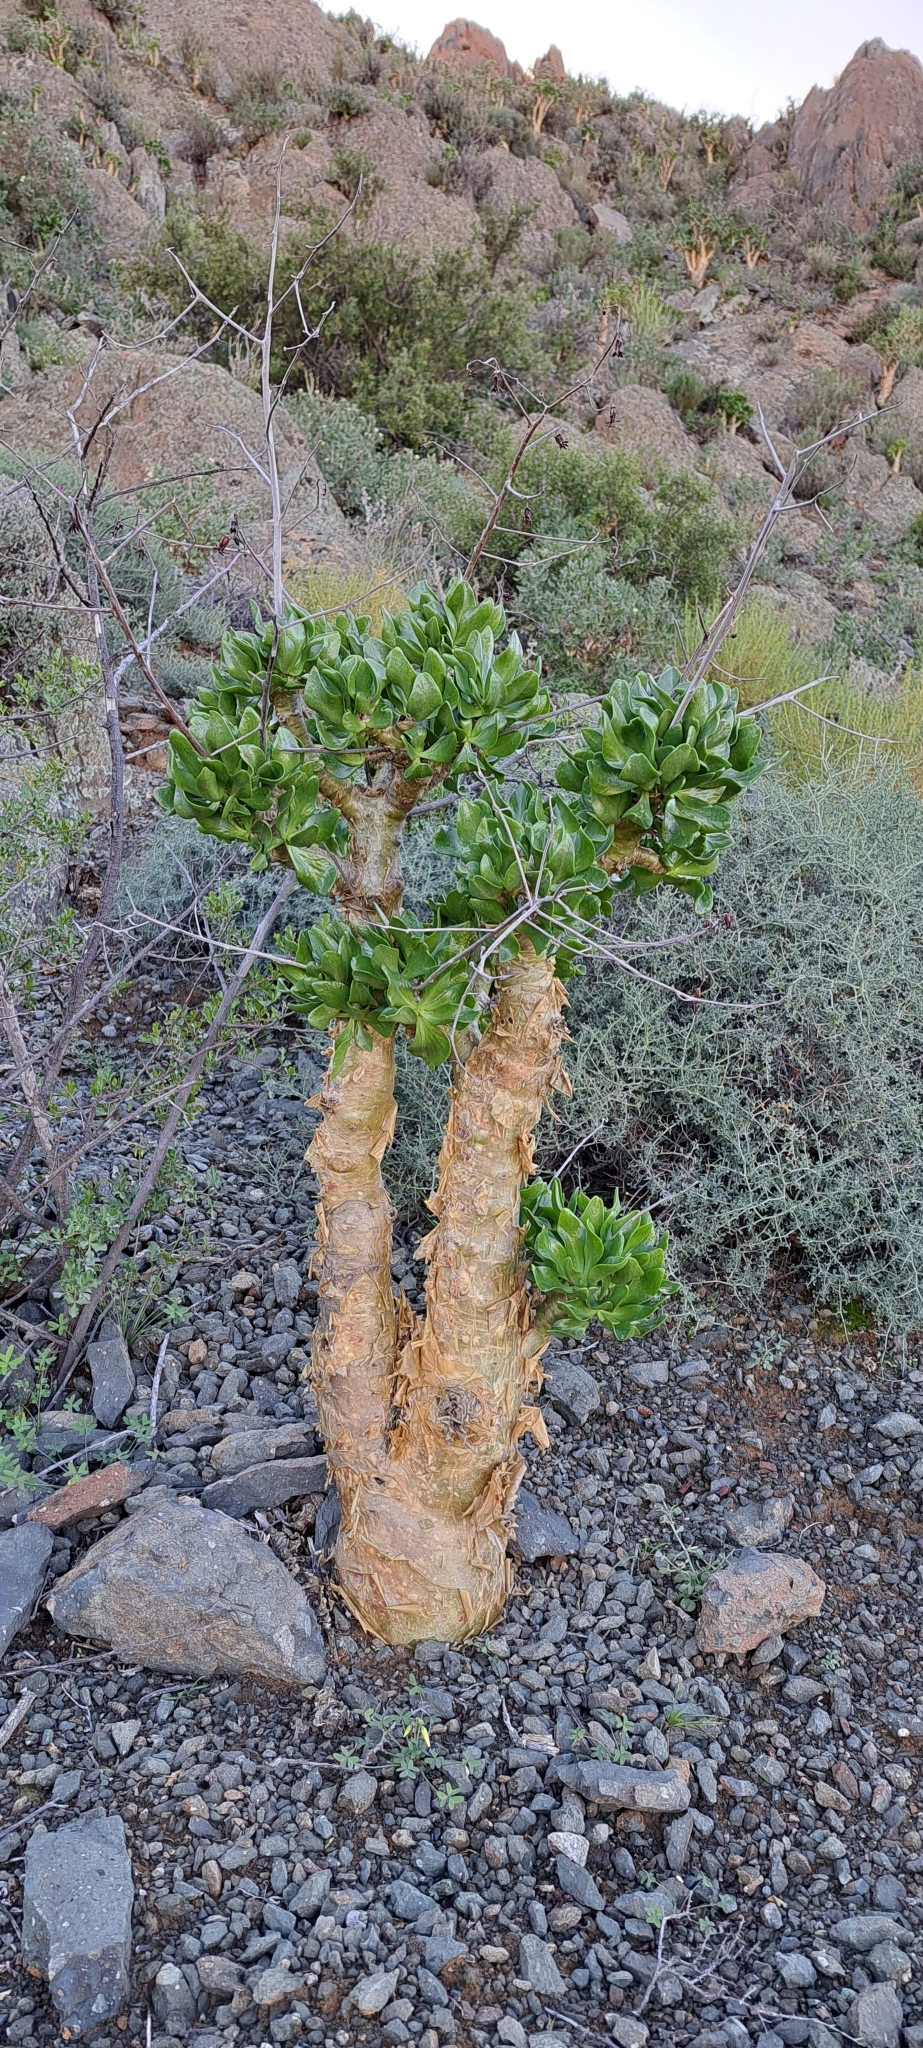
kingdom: Plantae
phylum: Tracheophyta
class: Magnoliopsida
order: Saxifragales
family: Crassulaceae
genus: Tylecodon
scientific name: Tylecodon paniculatus
